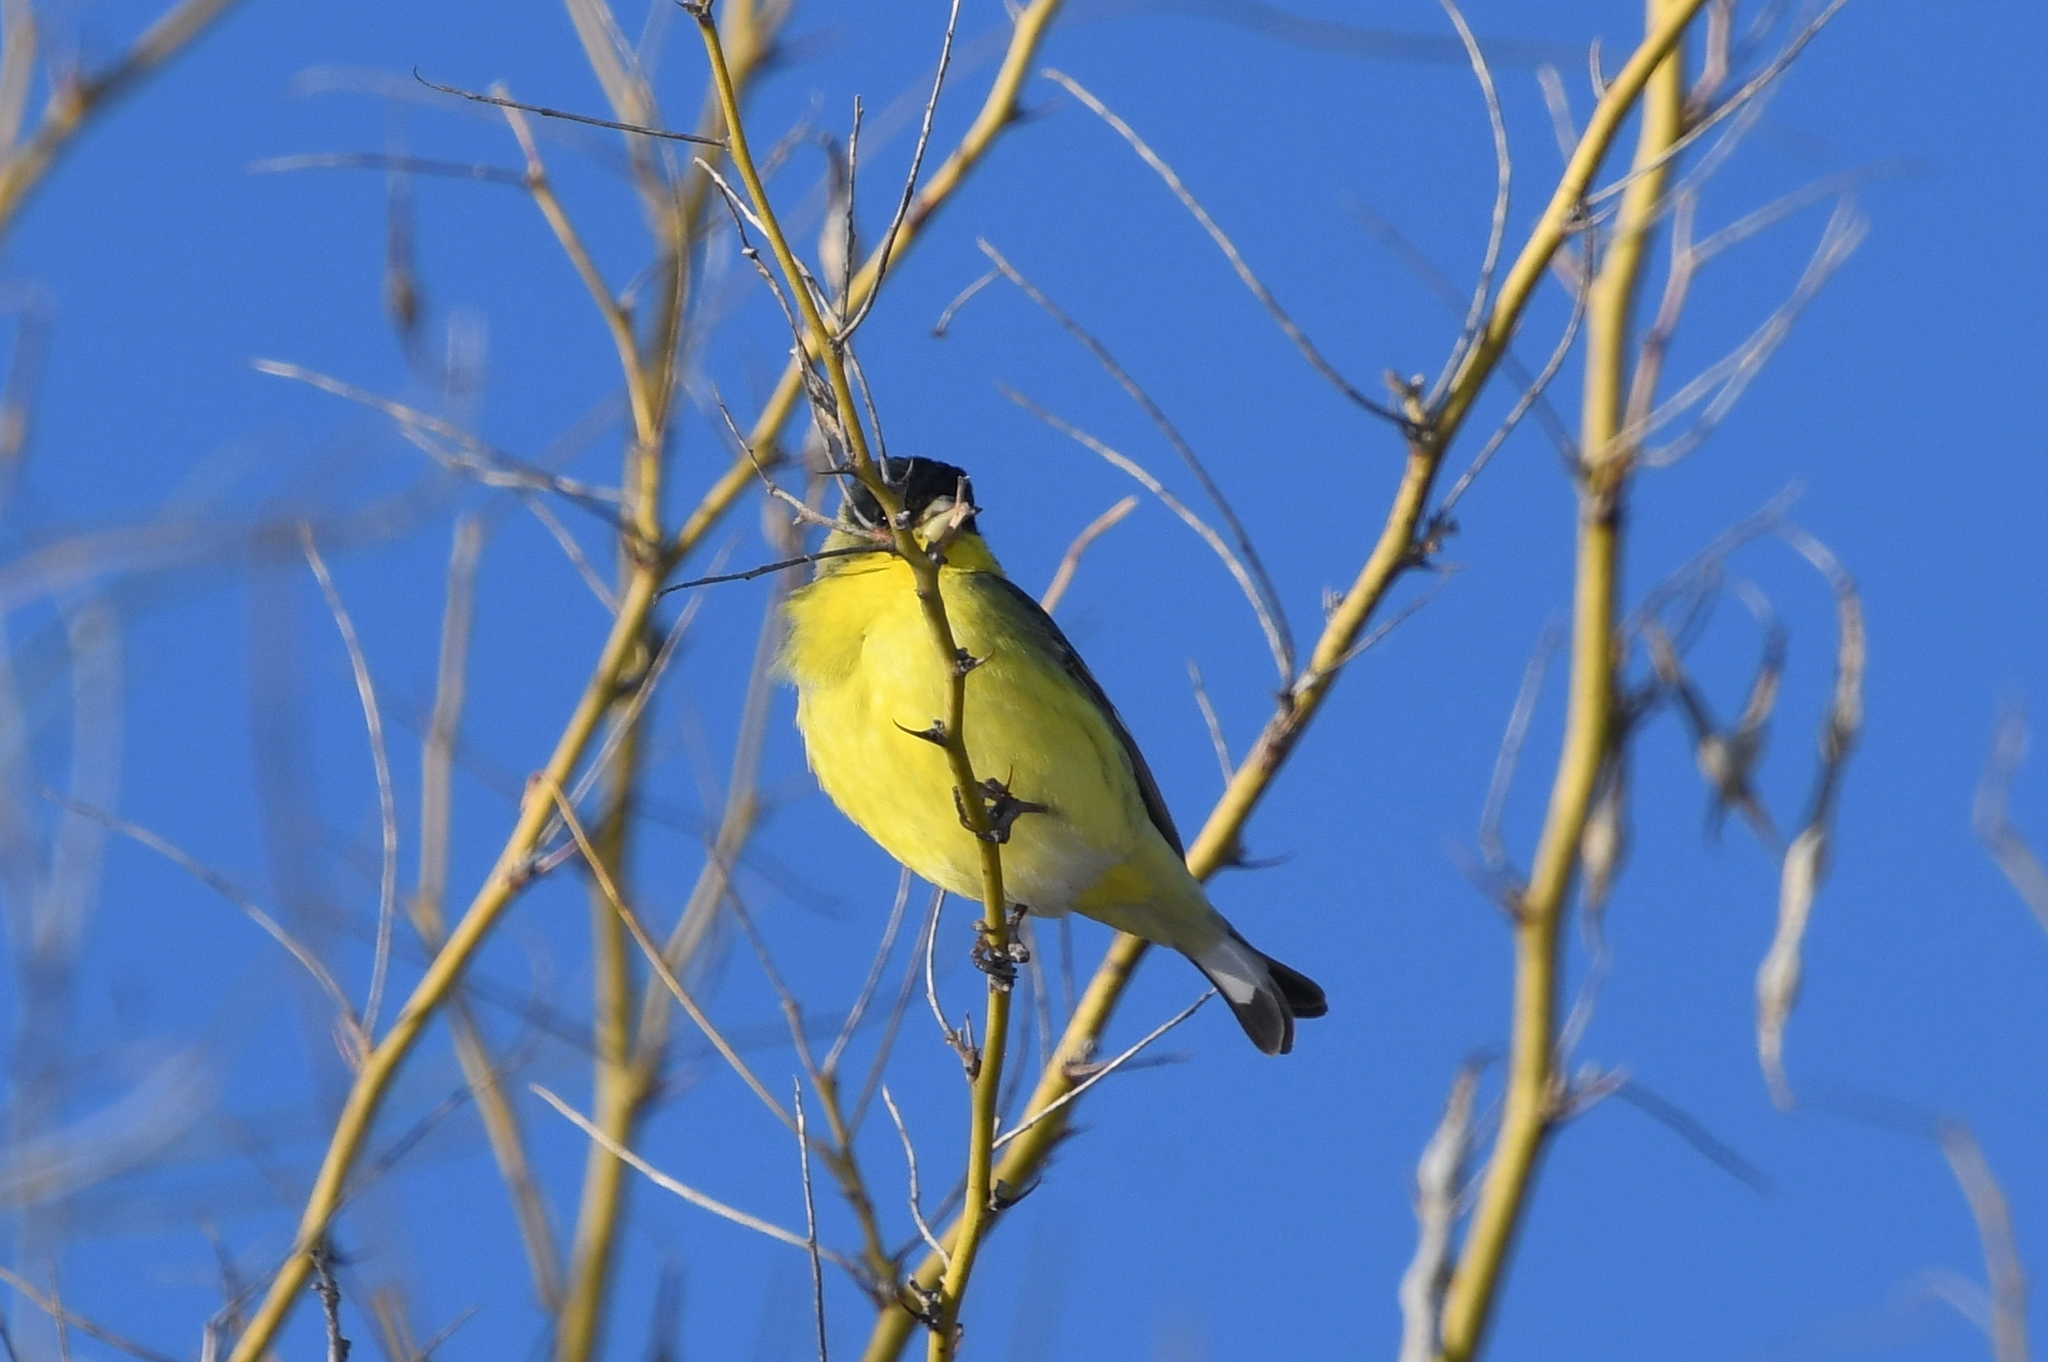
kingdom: Animalia
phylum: Chordata
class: Aves
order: Passeriformes
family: Fringillidae
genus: Spinus
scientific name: Spinus psaltria
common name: Lesser goldfinch
